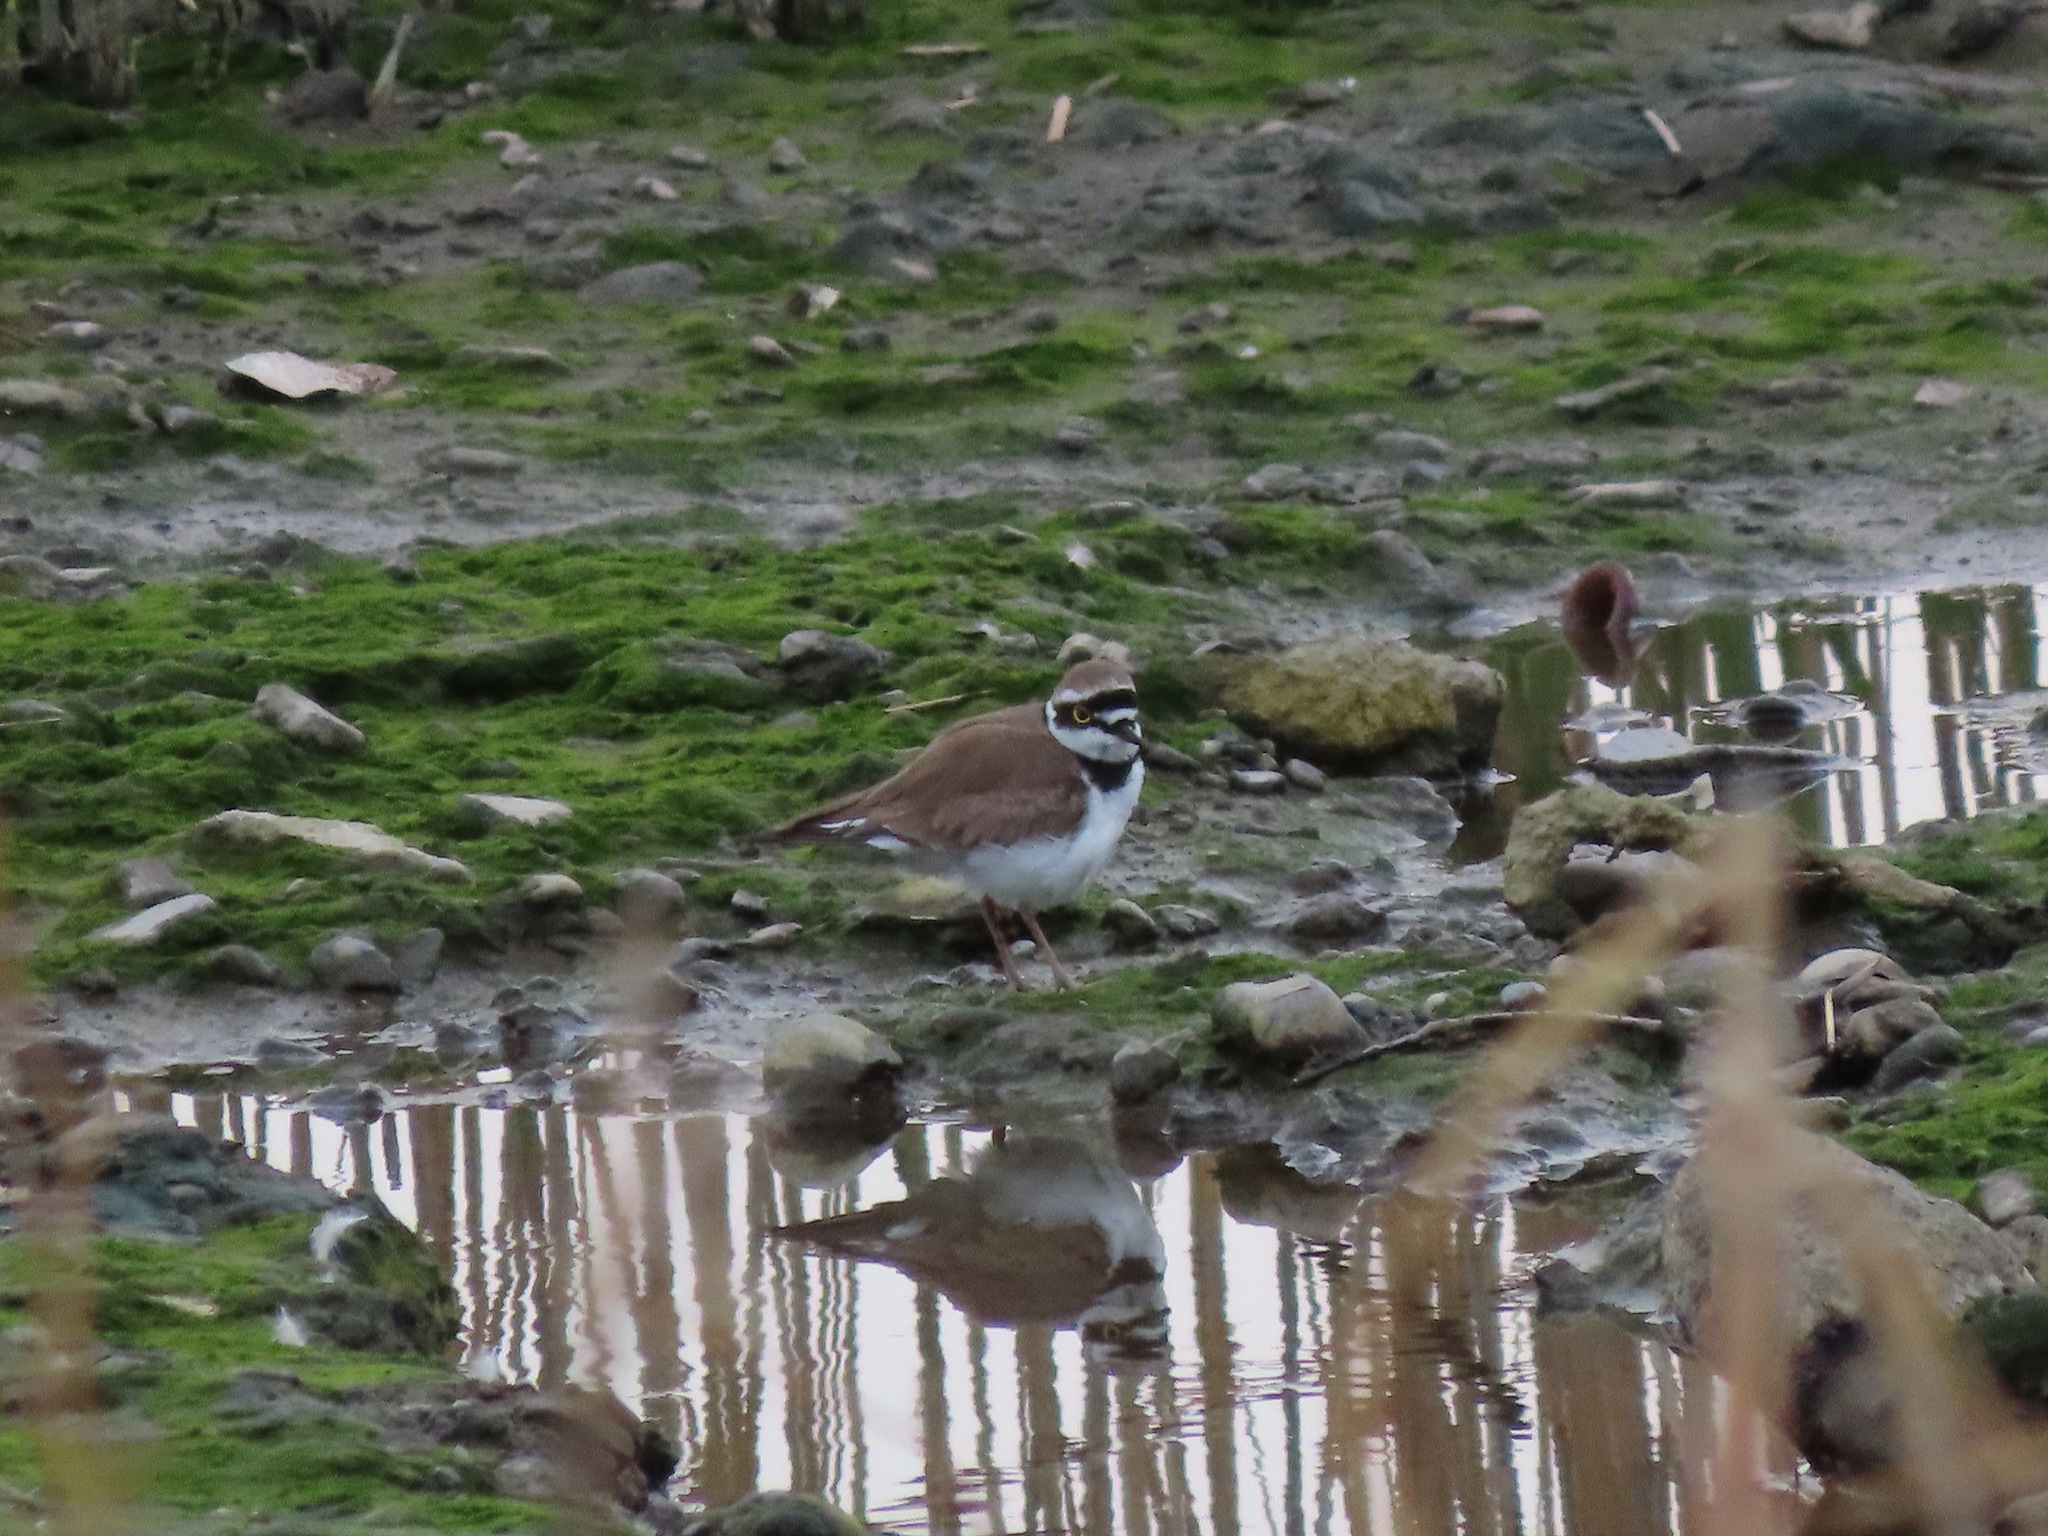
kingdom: Animalia
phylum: Chordata
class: Aves
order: Charadriiformes
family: Charadriidae
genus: Charadrius
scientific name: Charadrius dubius
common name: Little ringed plover
